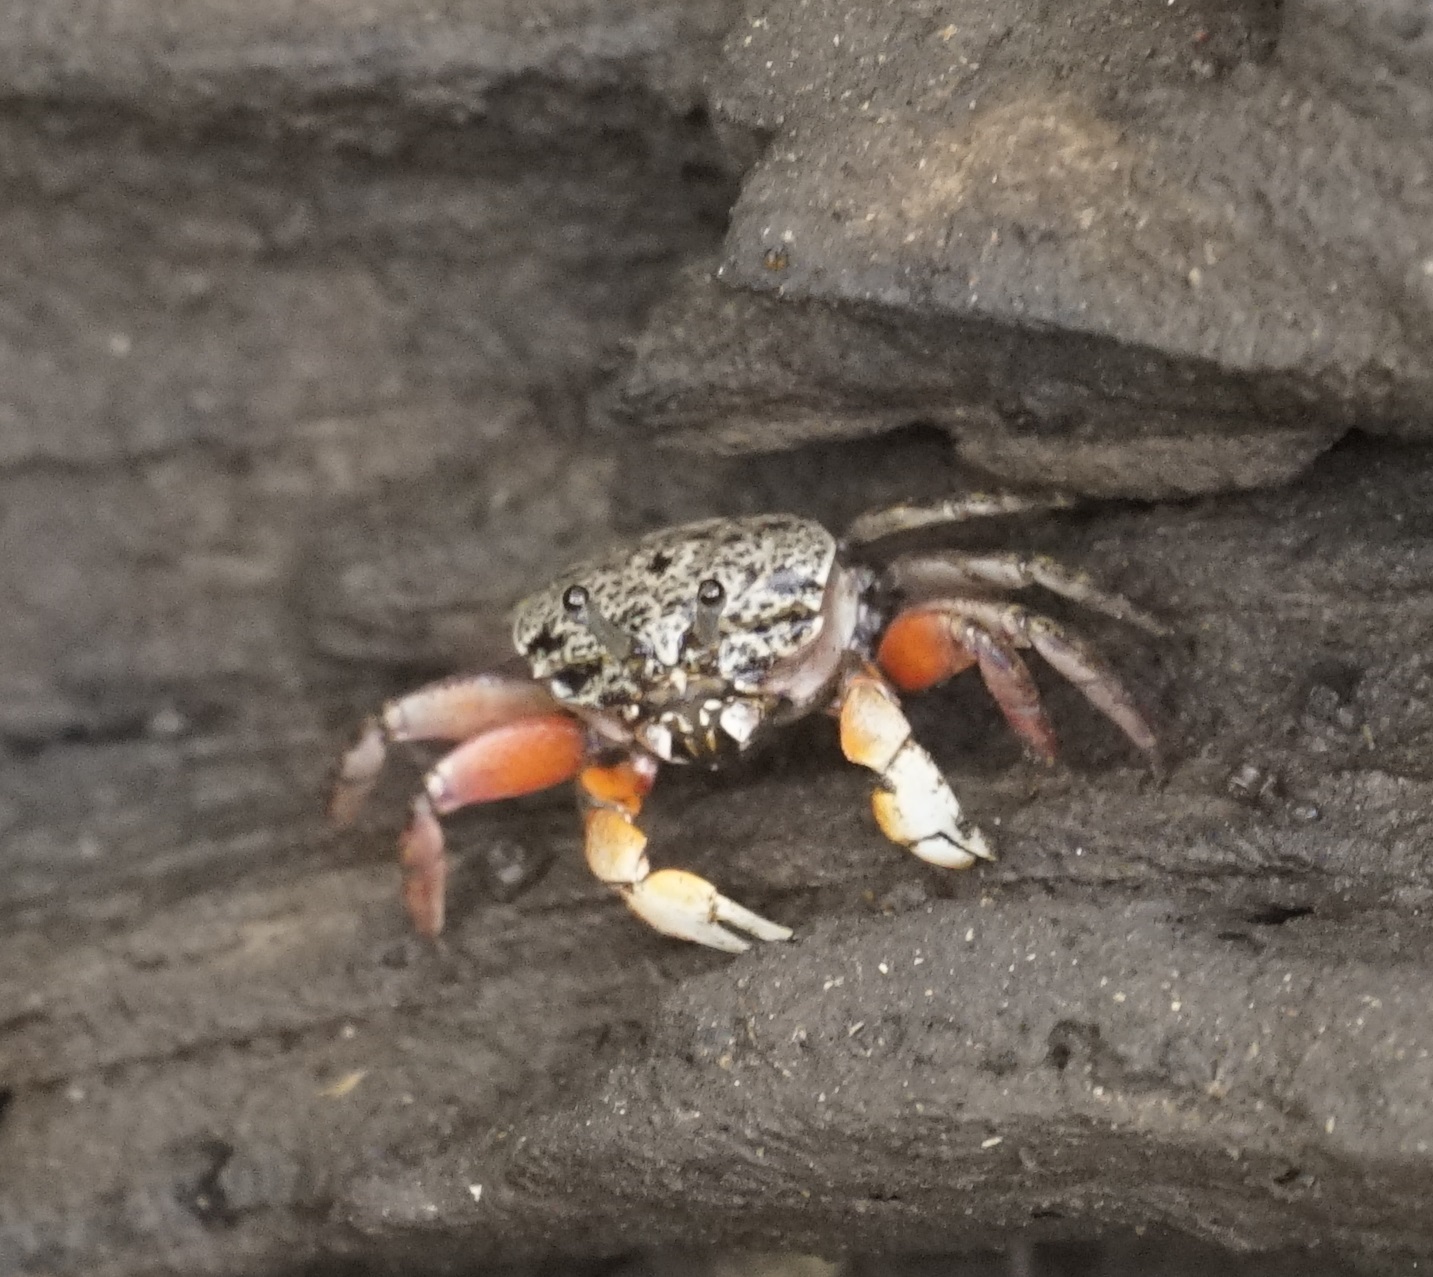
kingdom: Animalia
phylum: Arthropoda
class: Malacostraca
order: Decapoda
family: Heloeciidae
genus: Heloecius
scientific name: Heloecius cordiformis
